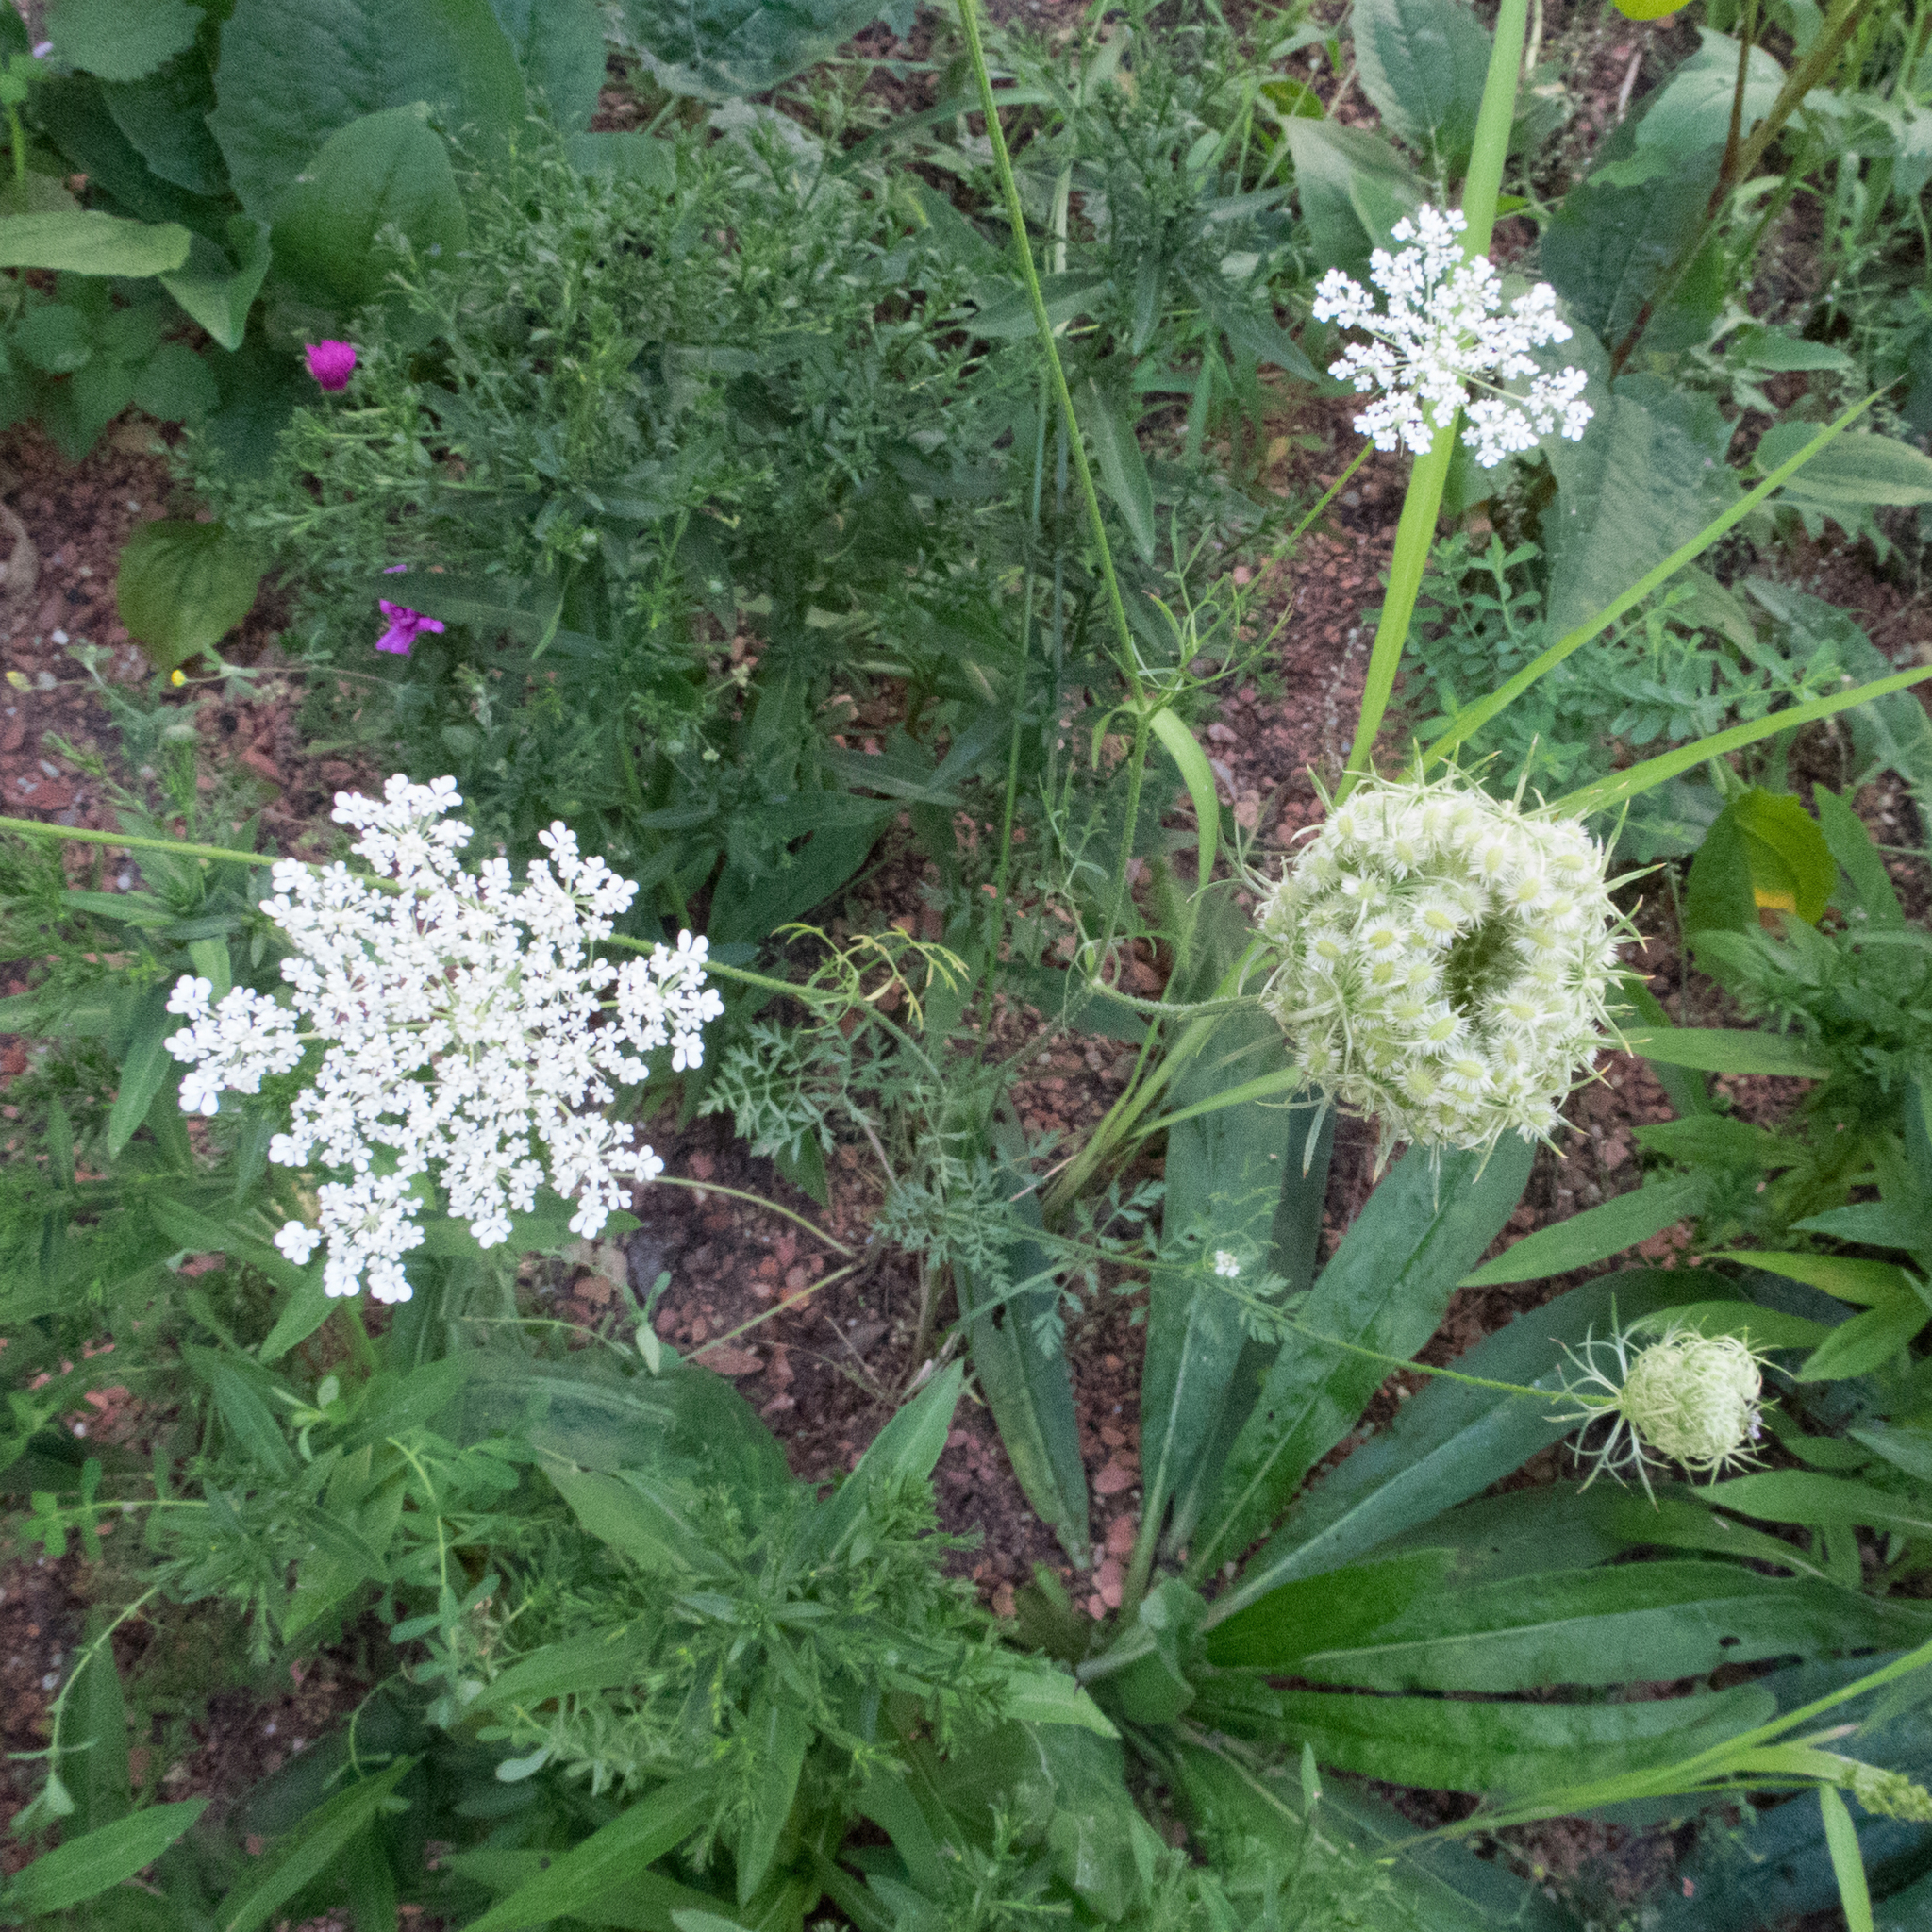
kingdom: Plantae
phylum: Tracheophyta
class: Magnoliopsida
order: Apiales
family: Apiaceae
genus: Daucus
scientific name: Daucus carota
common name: Wild carrot
